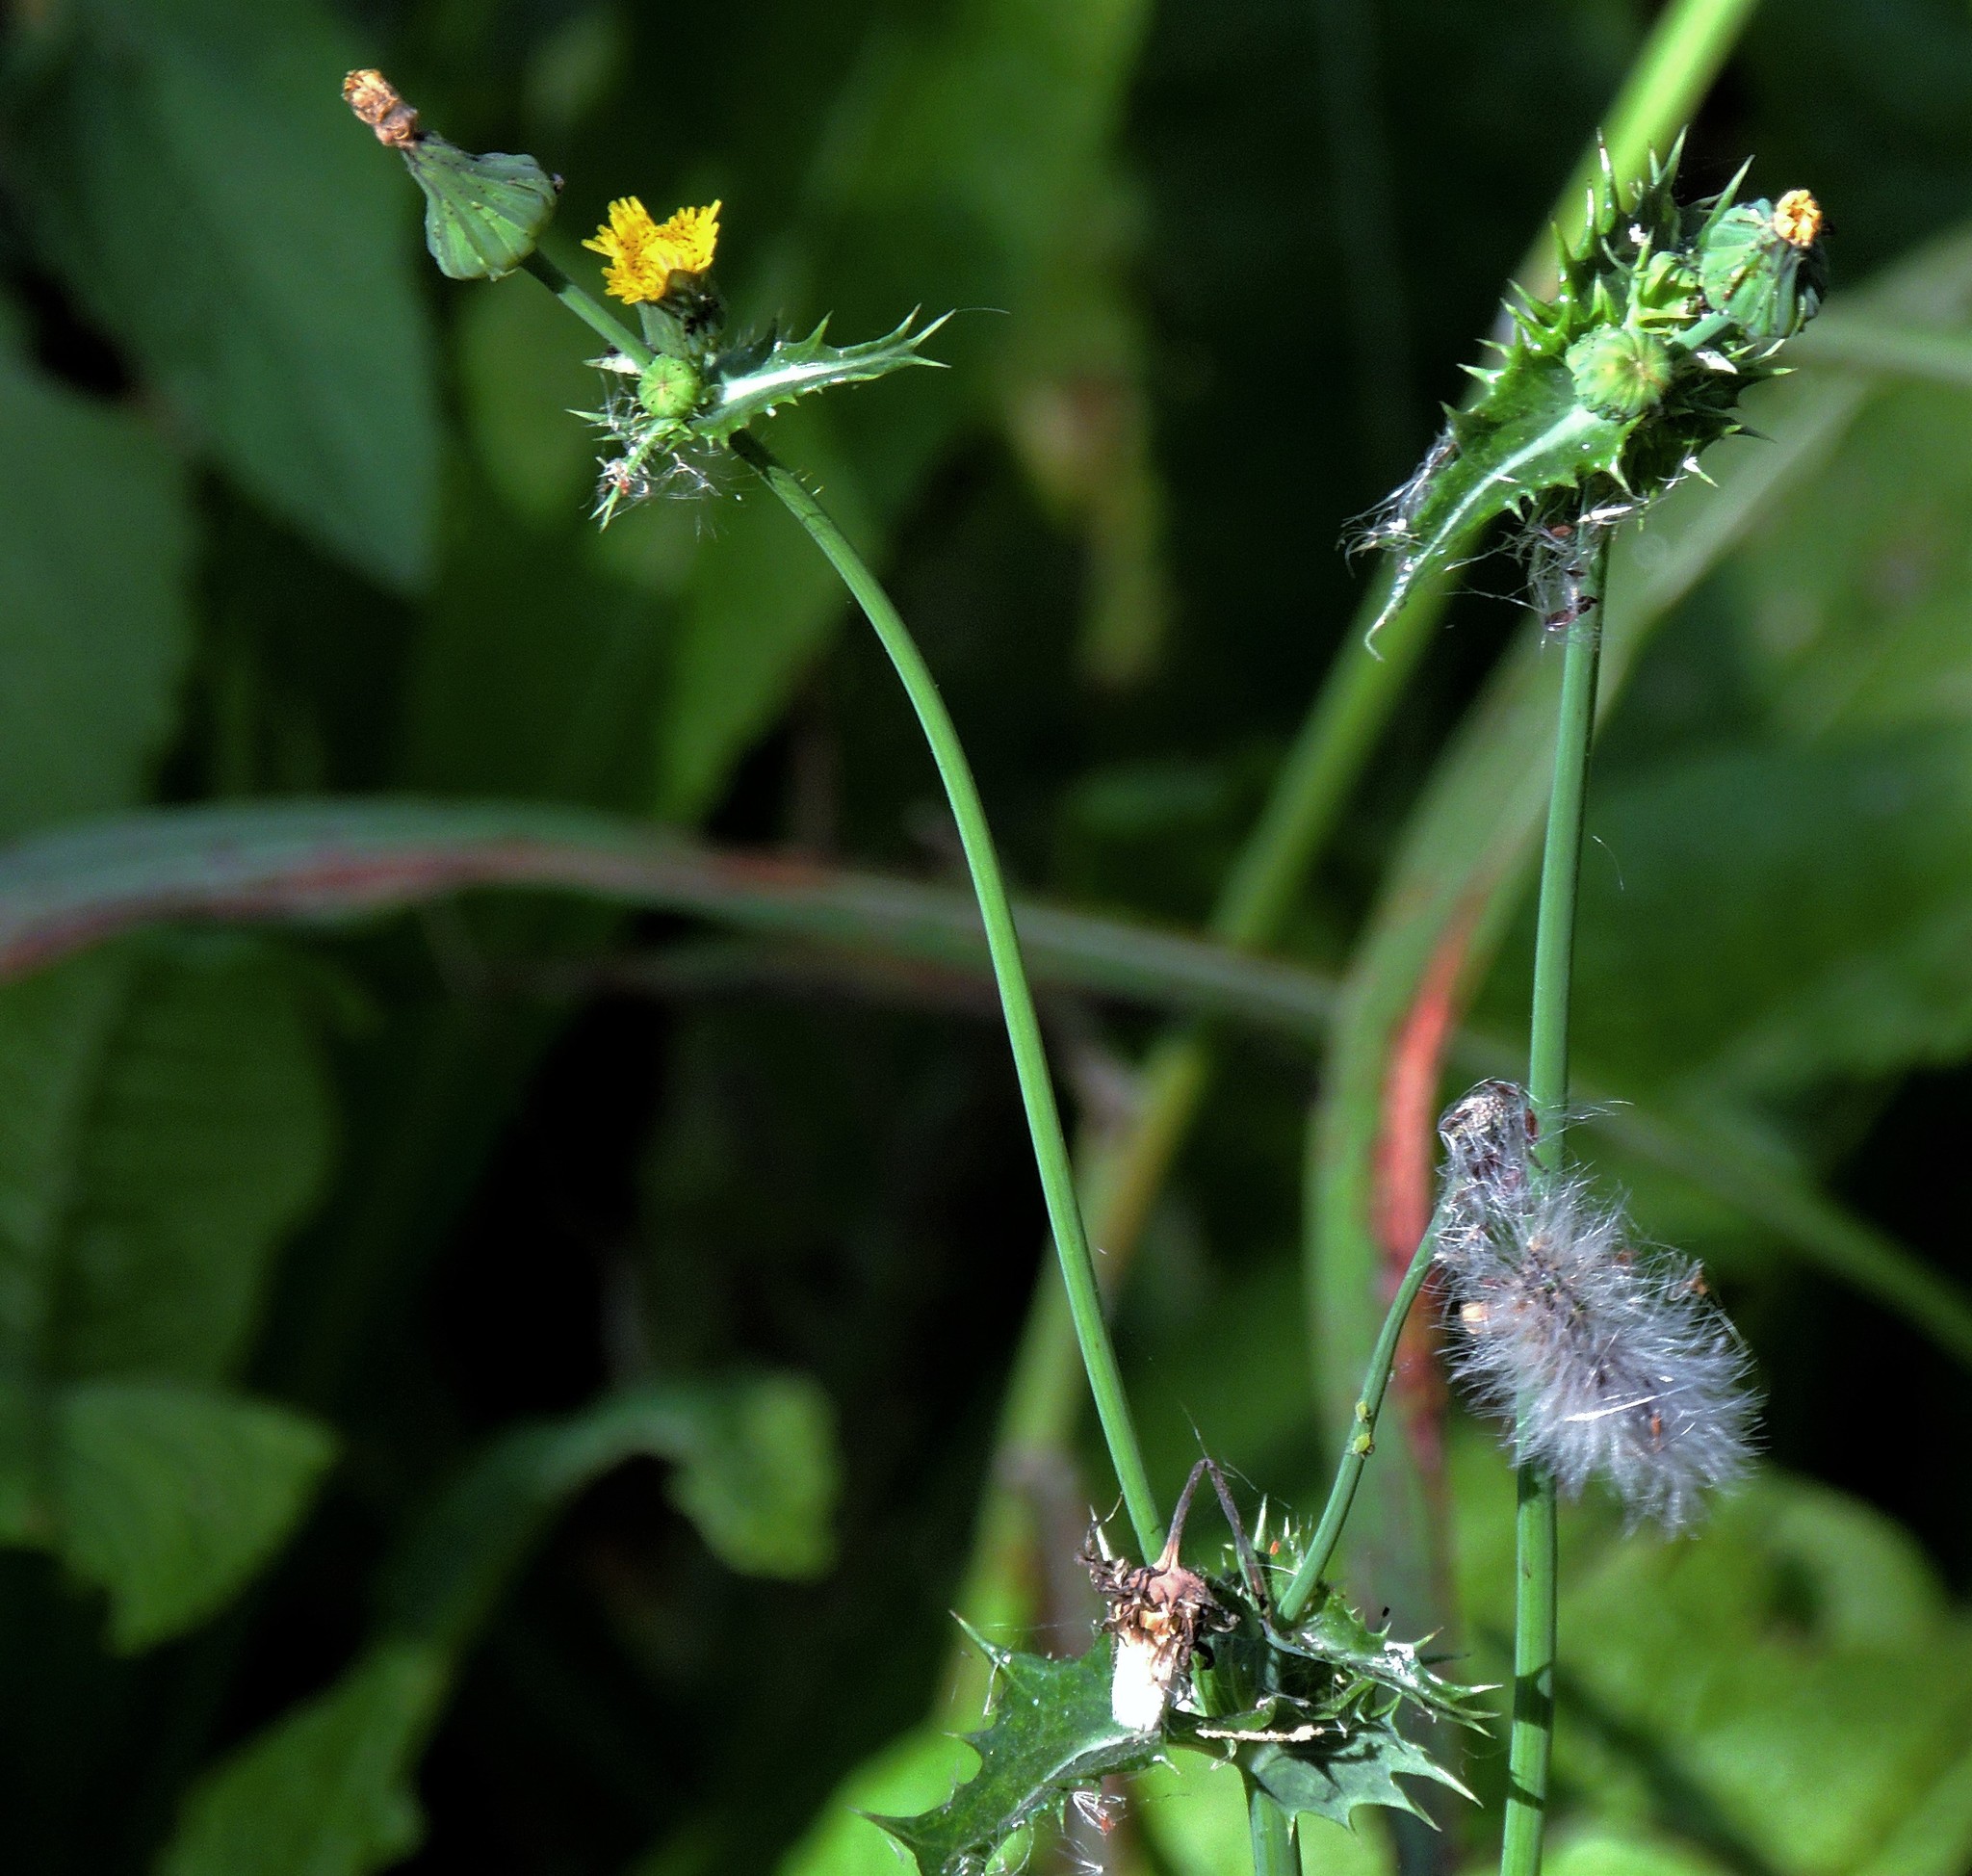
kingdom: Plantae
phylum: Tracheophyta
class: Magnoliopsida
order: Asterales
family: Asteraceae
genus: Sonchus
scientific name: Sonchus asper
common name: Prickly sow-thistle
